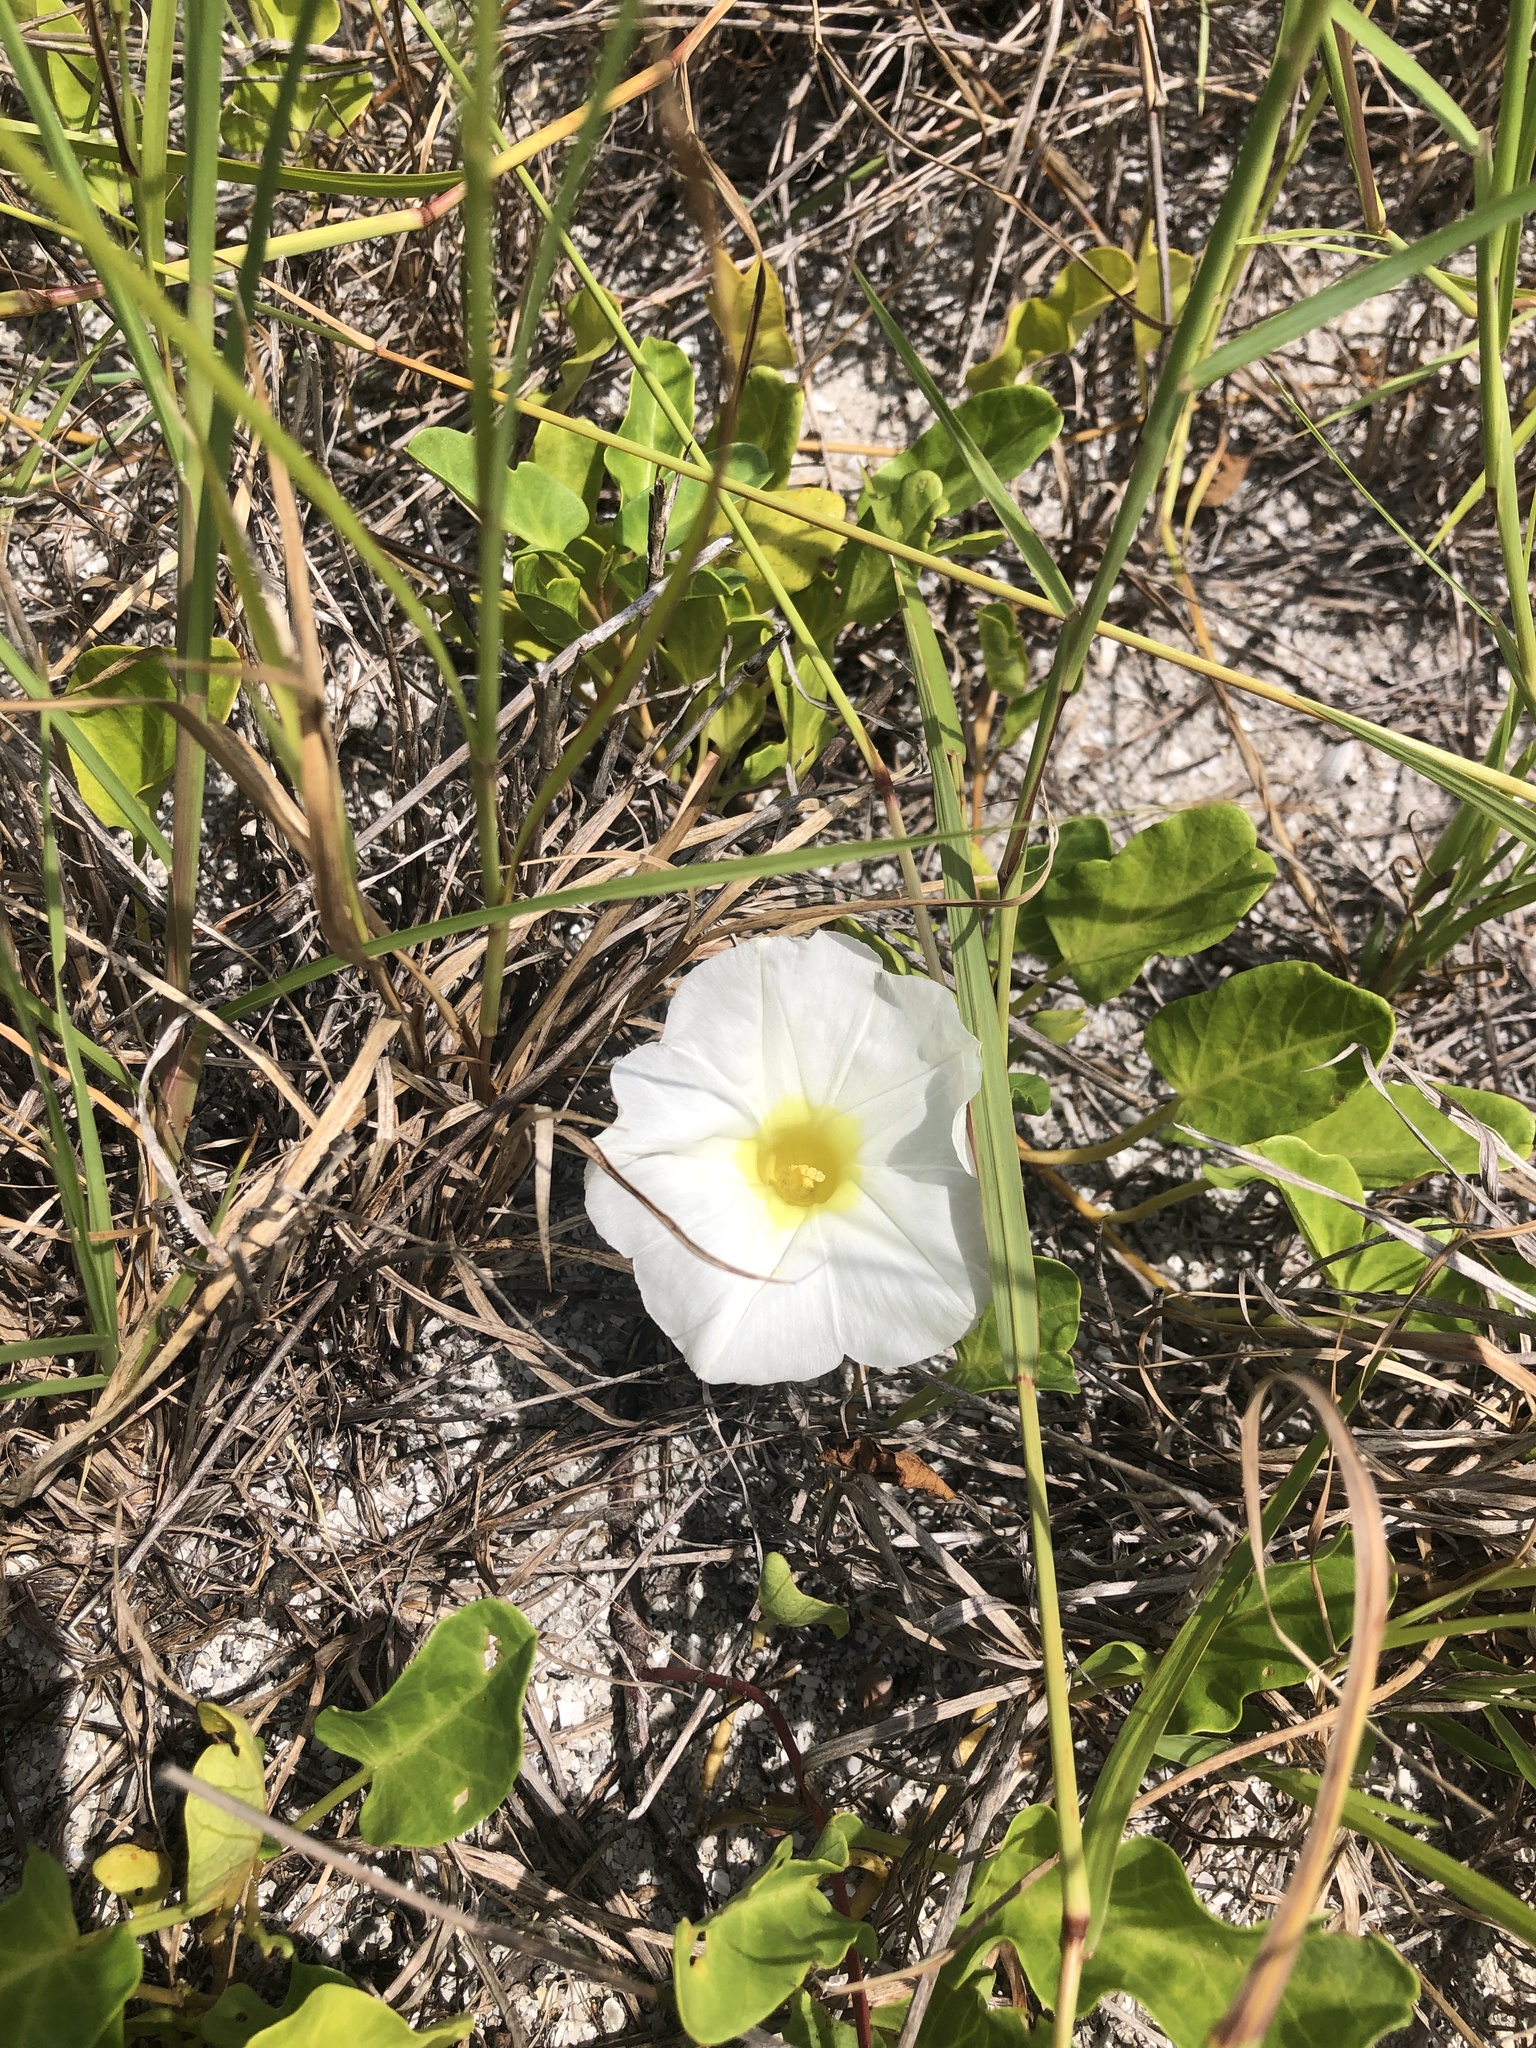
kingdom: Plantae
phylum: Tracheophyta
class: Magnoliopsida
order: Solanales
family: Convolvulaceae
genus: Ipomoea
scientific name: Ipomoea imperati
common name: Fiddle-leaf morning-glory
